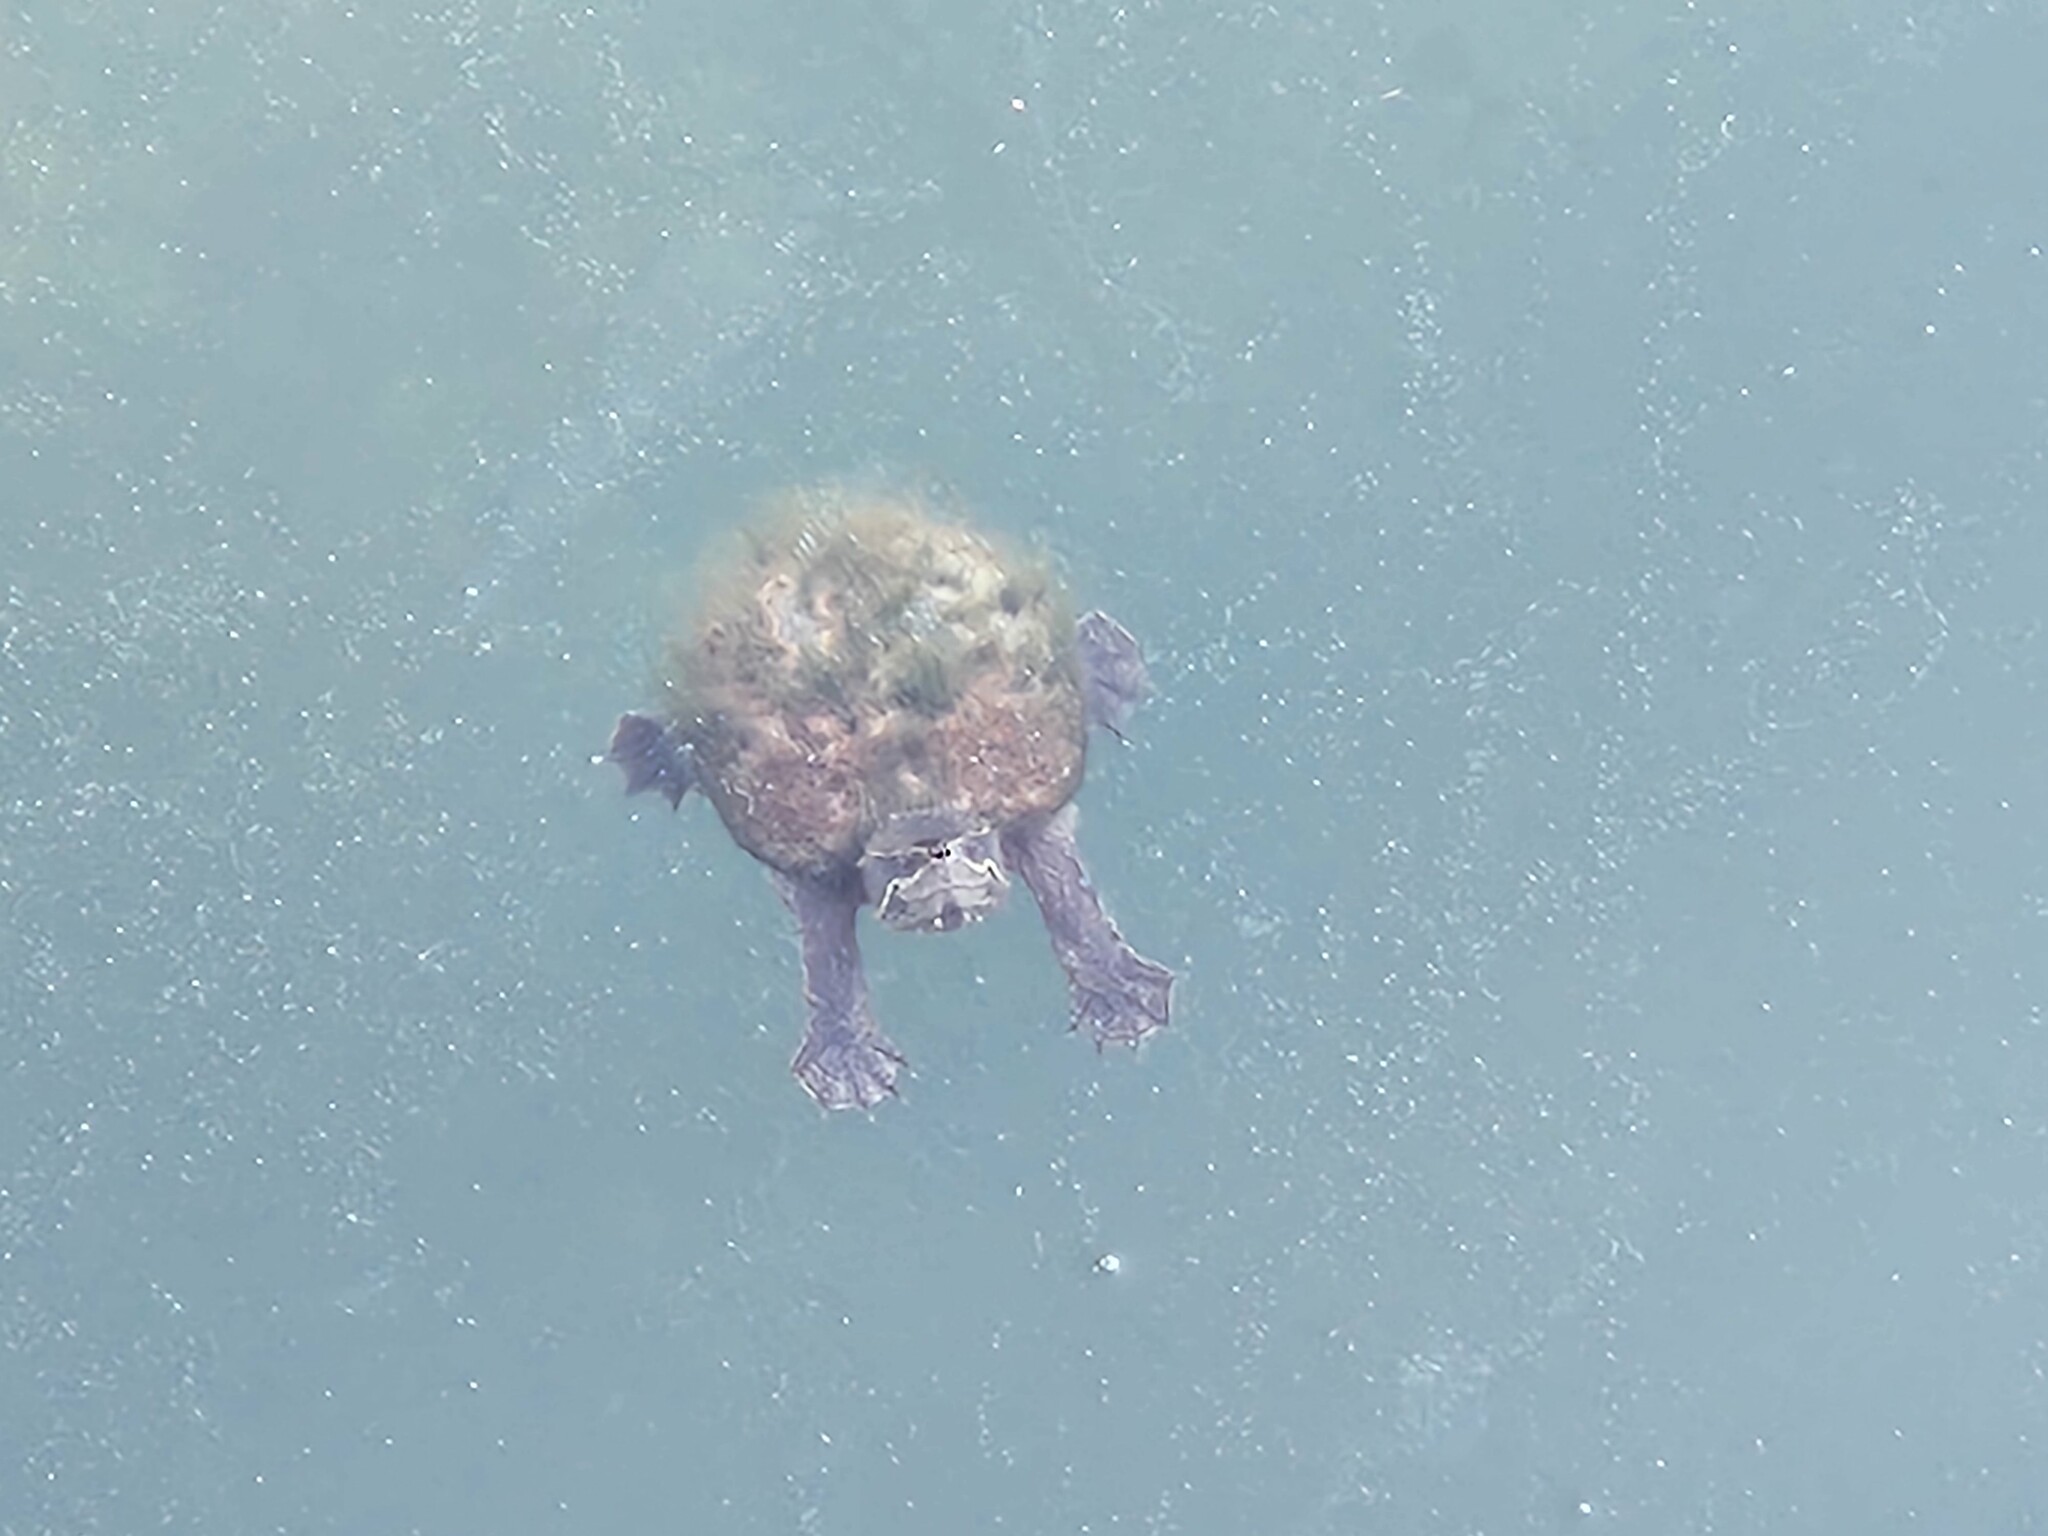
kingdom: Animalia
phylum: Chordata
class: Testudines
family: Kinosternidae
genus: Sternotherus
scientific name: Sternotherus odoratus
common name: Common musk turtle
